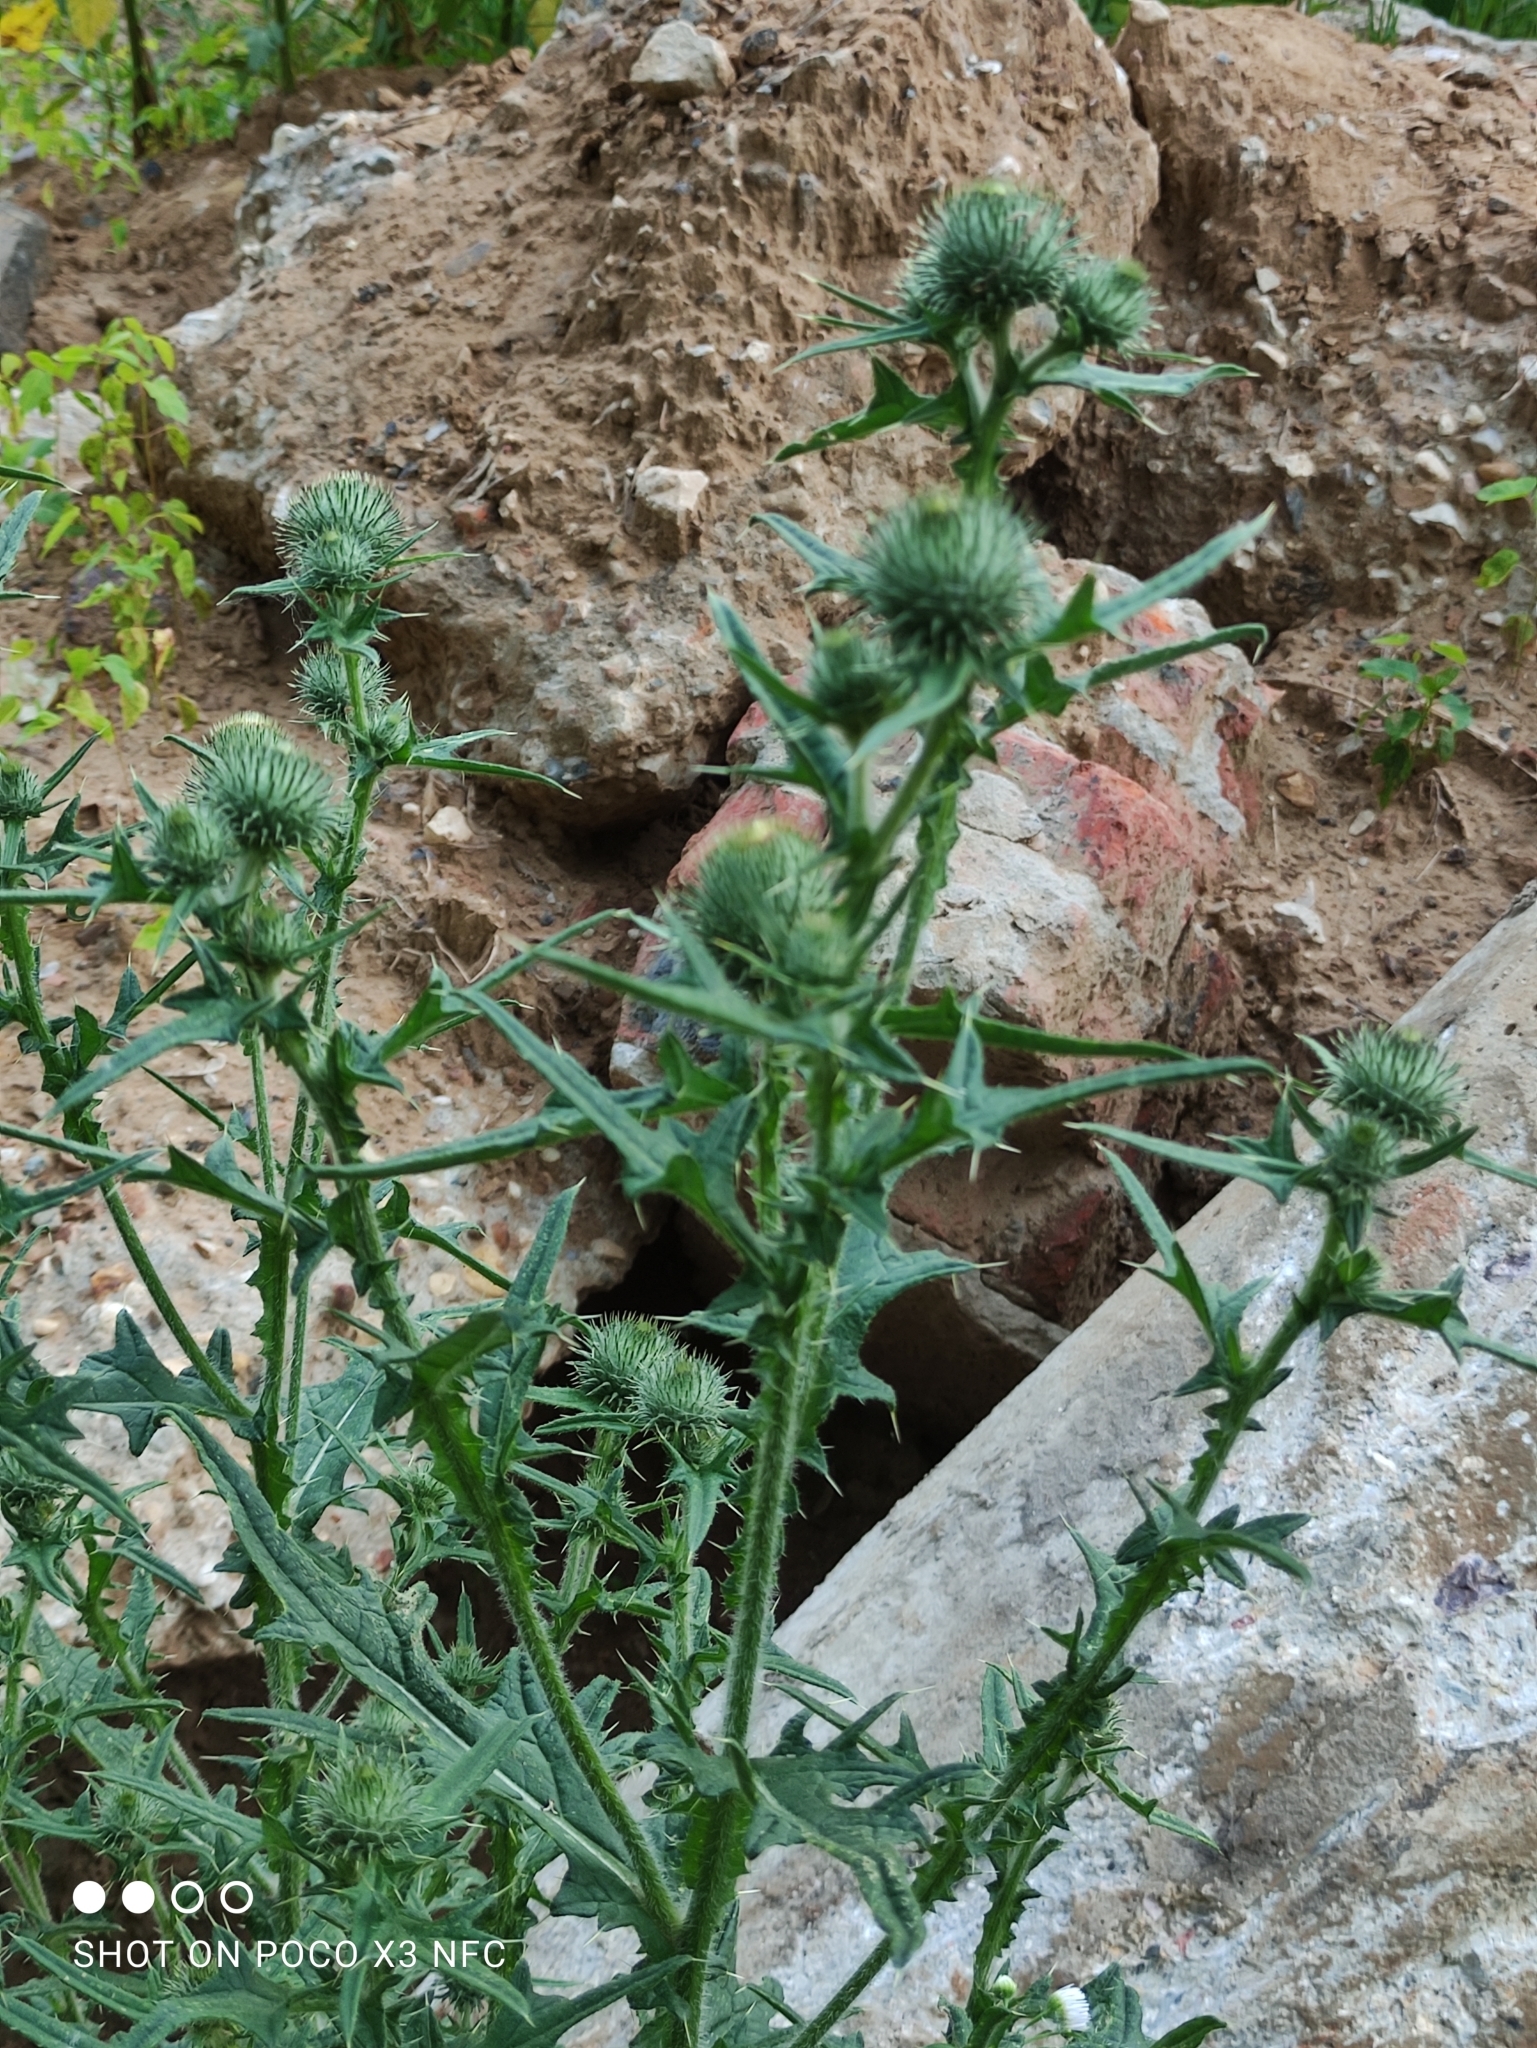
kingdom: Plantae
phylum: Tracheophyta
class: Magnoliopsida
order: Asterales
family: Asteraceae
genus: Cirsium
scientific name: Cirsium vulgare
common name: Bull thistle
